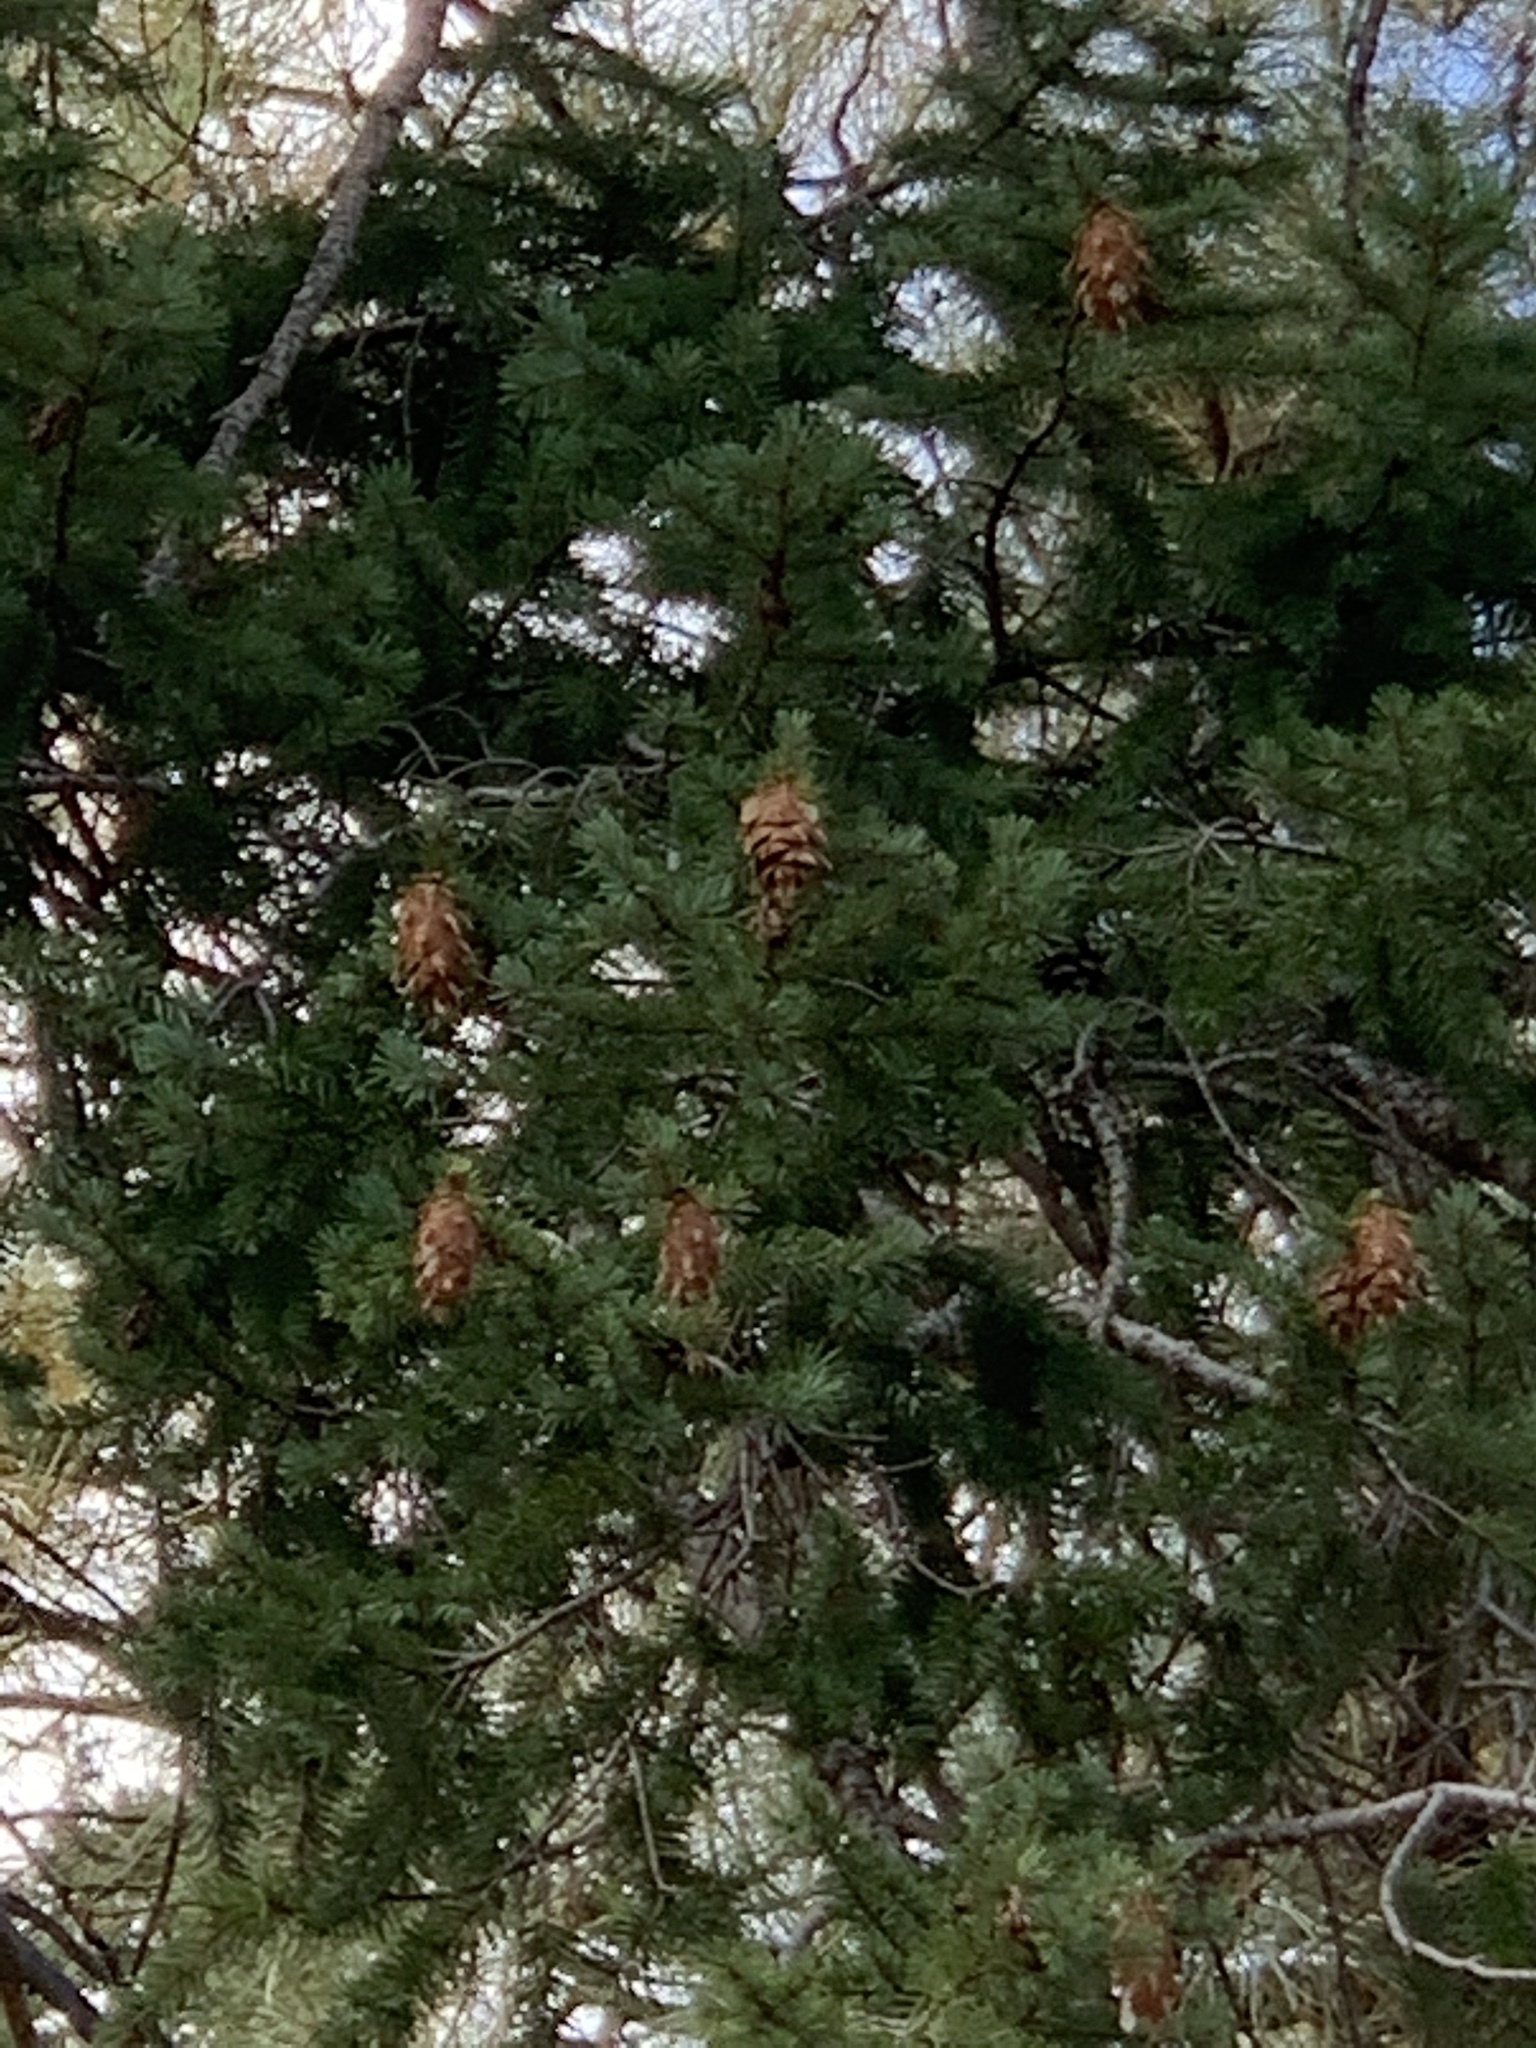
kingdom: Plantae
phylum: Tracheophyta
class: Pinopsida
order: Pinales
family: Pinaceae
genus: Pseudotsuga
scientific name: Pseudotsuga menziesii
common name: Douglas fir
